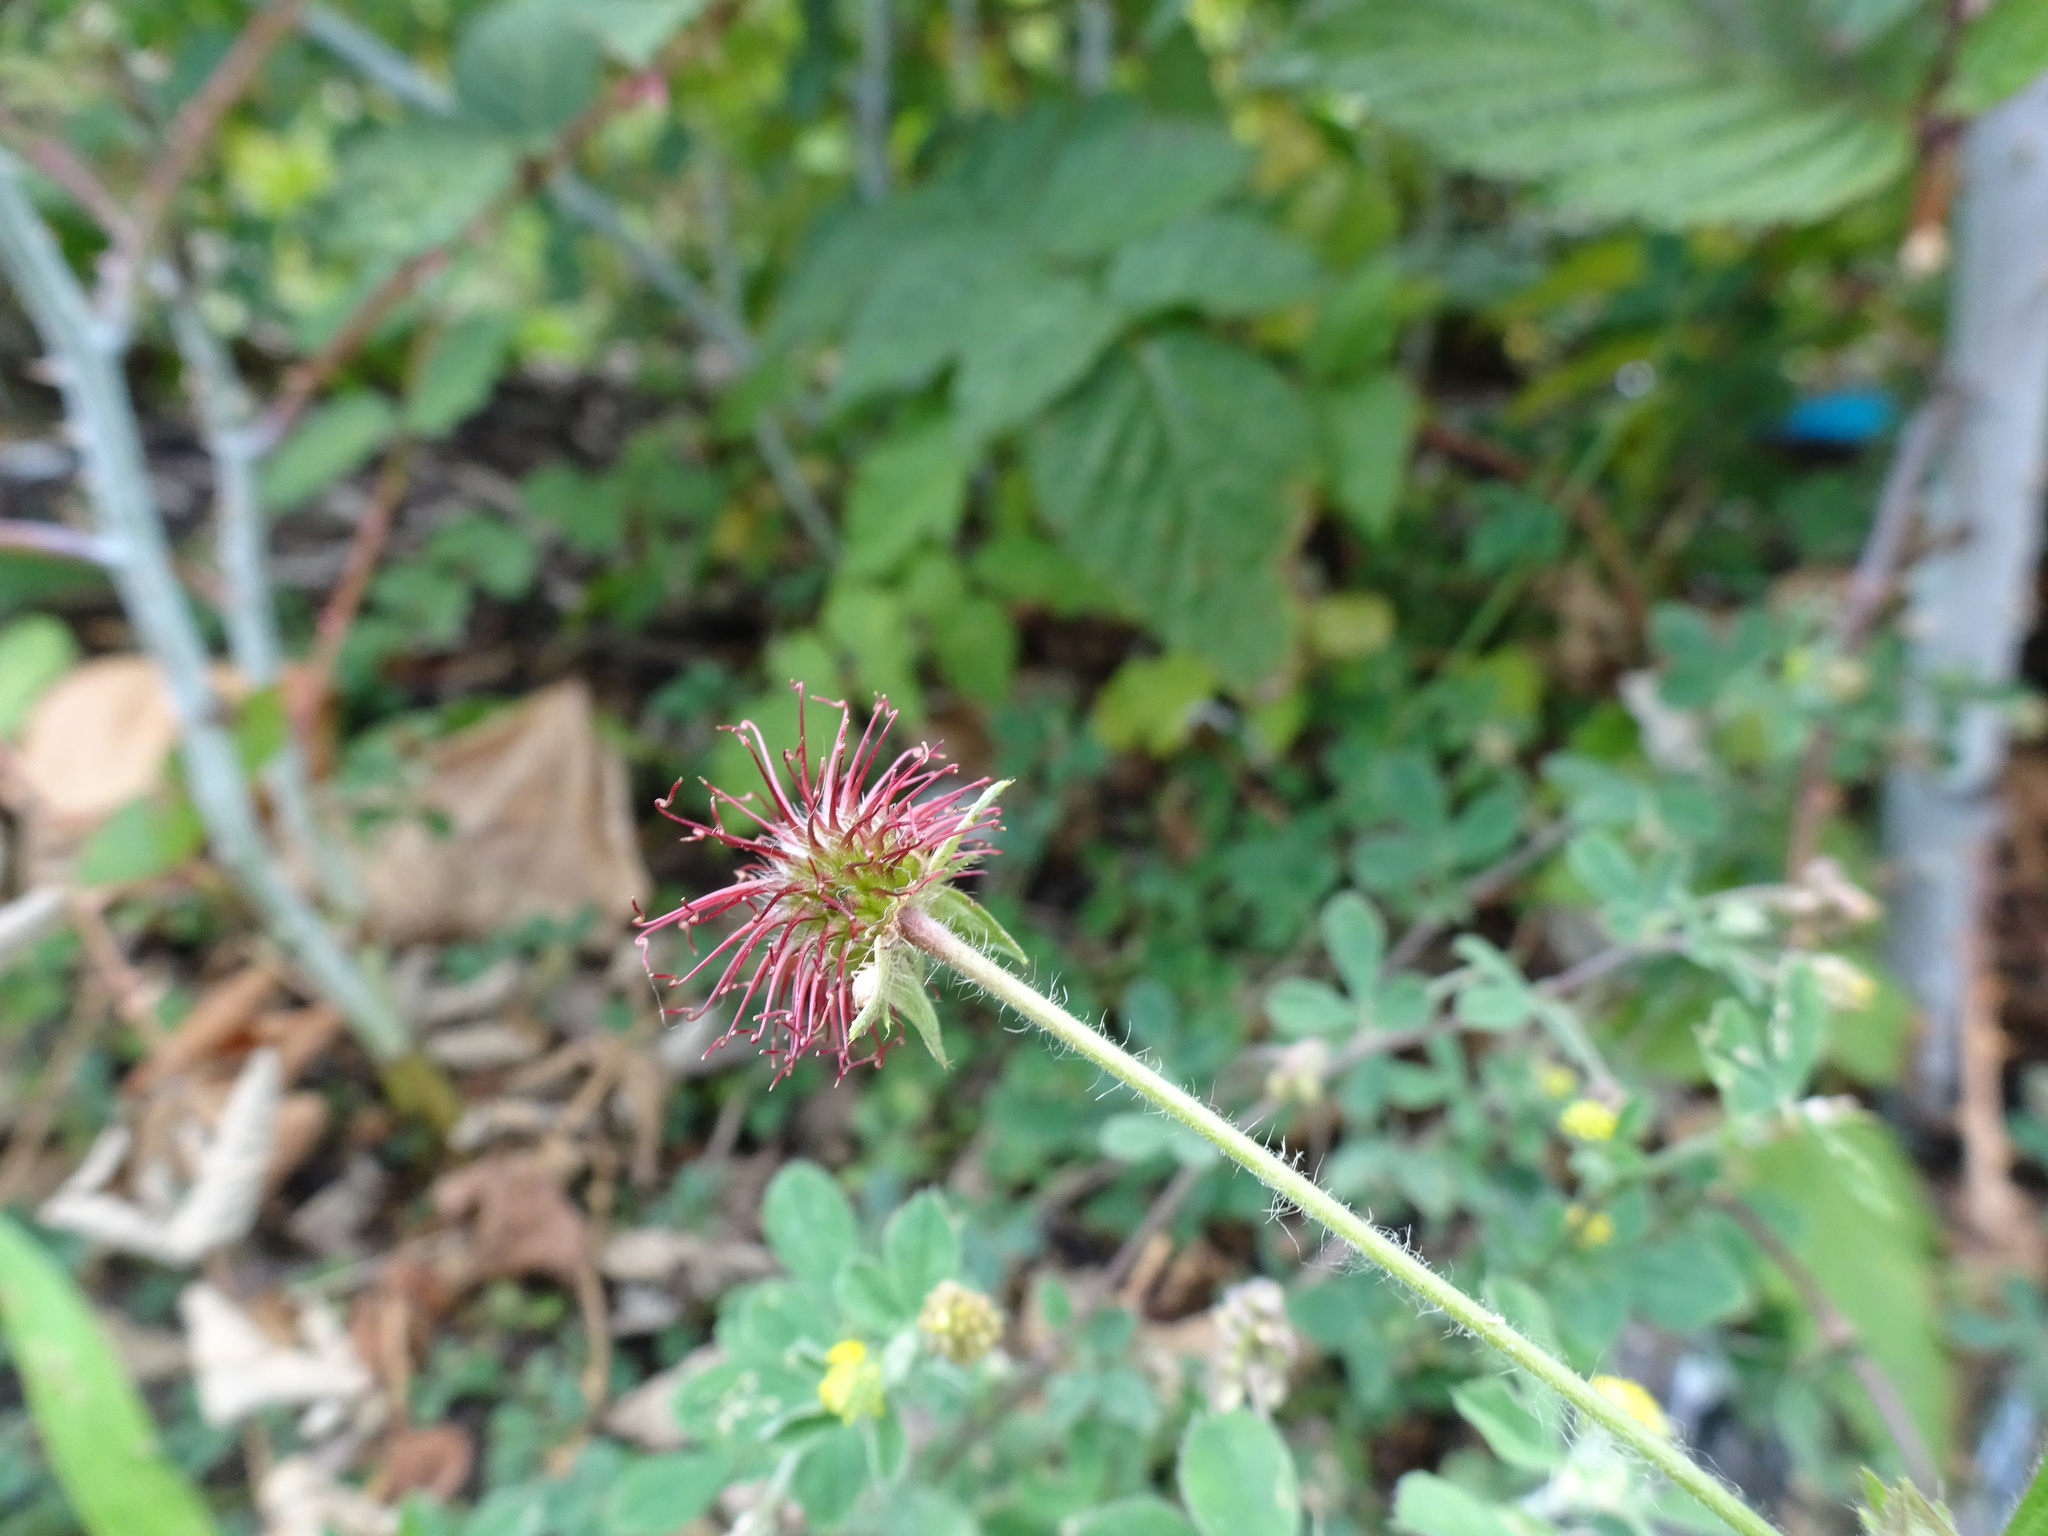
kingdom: Plantae
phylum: Tracheophyta
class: Magnoliopsida
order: Rosales
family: Rosaceae
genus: Geum
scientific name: Geum urbanum
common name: Wood avens
